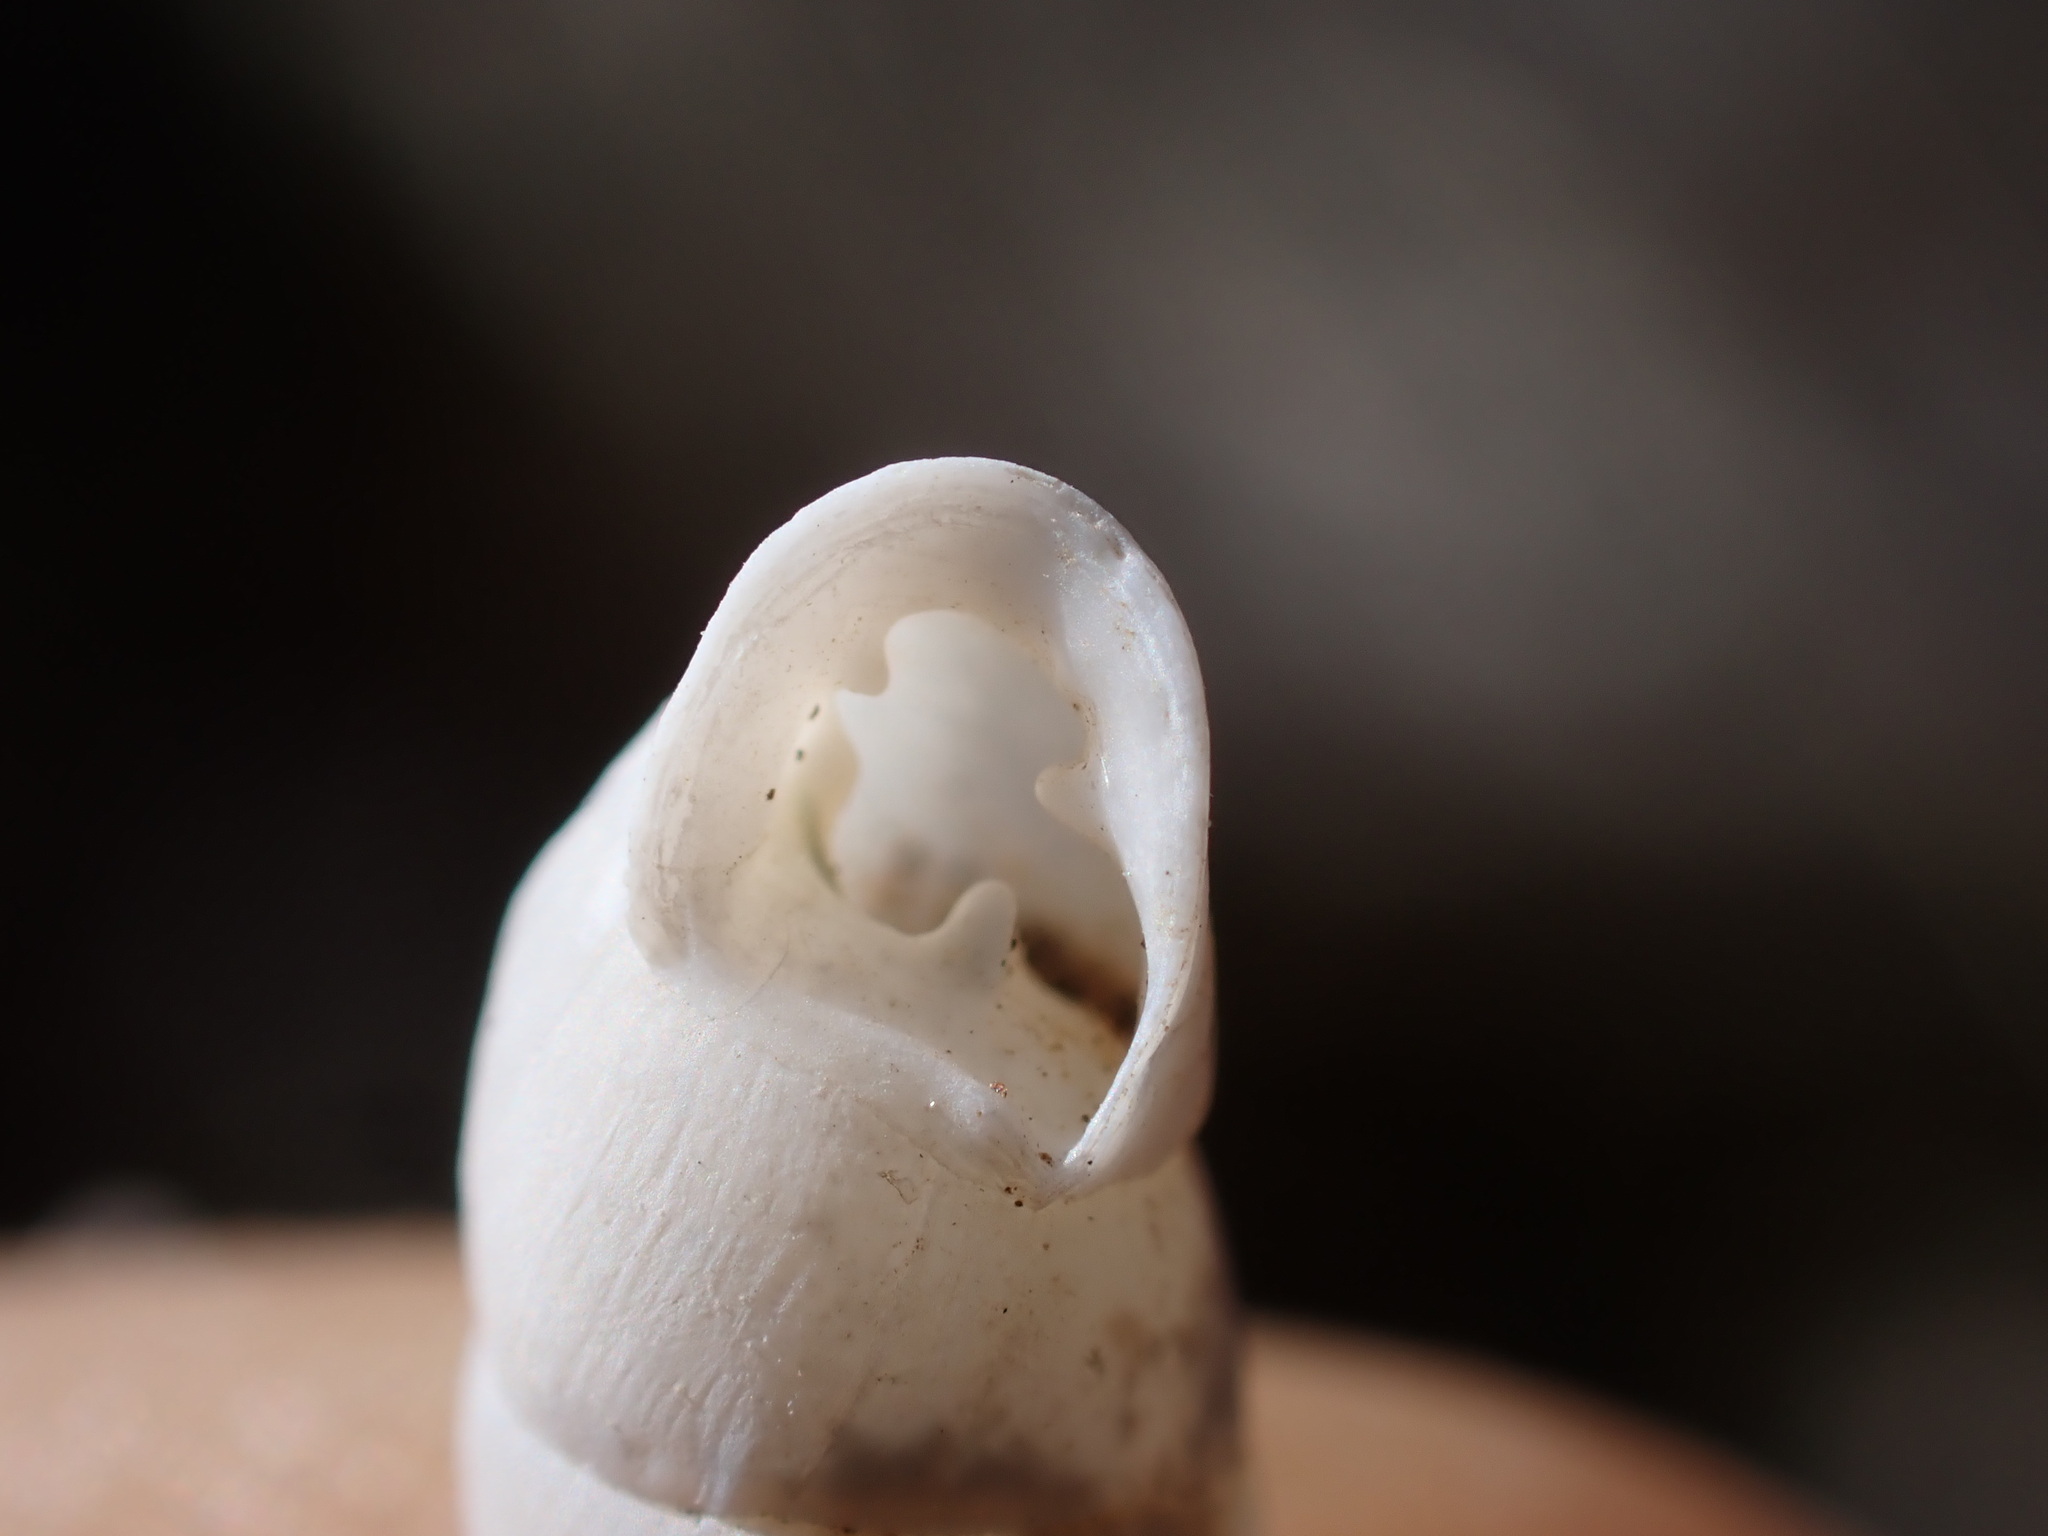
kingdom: Animalia
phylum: Mollusca
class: Gastropoda
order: Stylommatophora
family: Enidae
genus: Jaminia
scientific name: Jaminia quadridens
